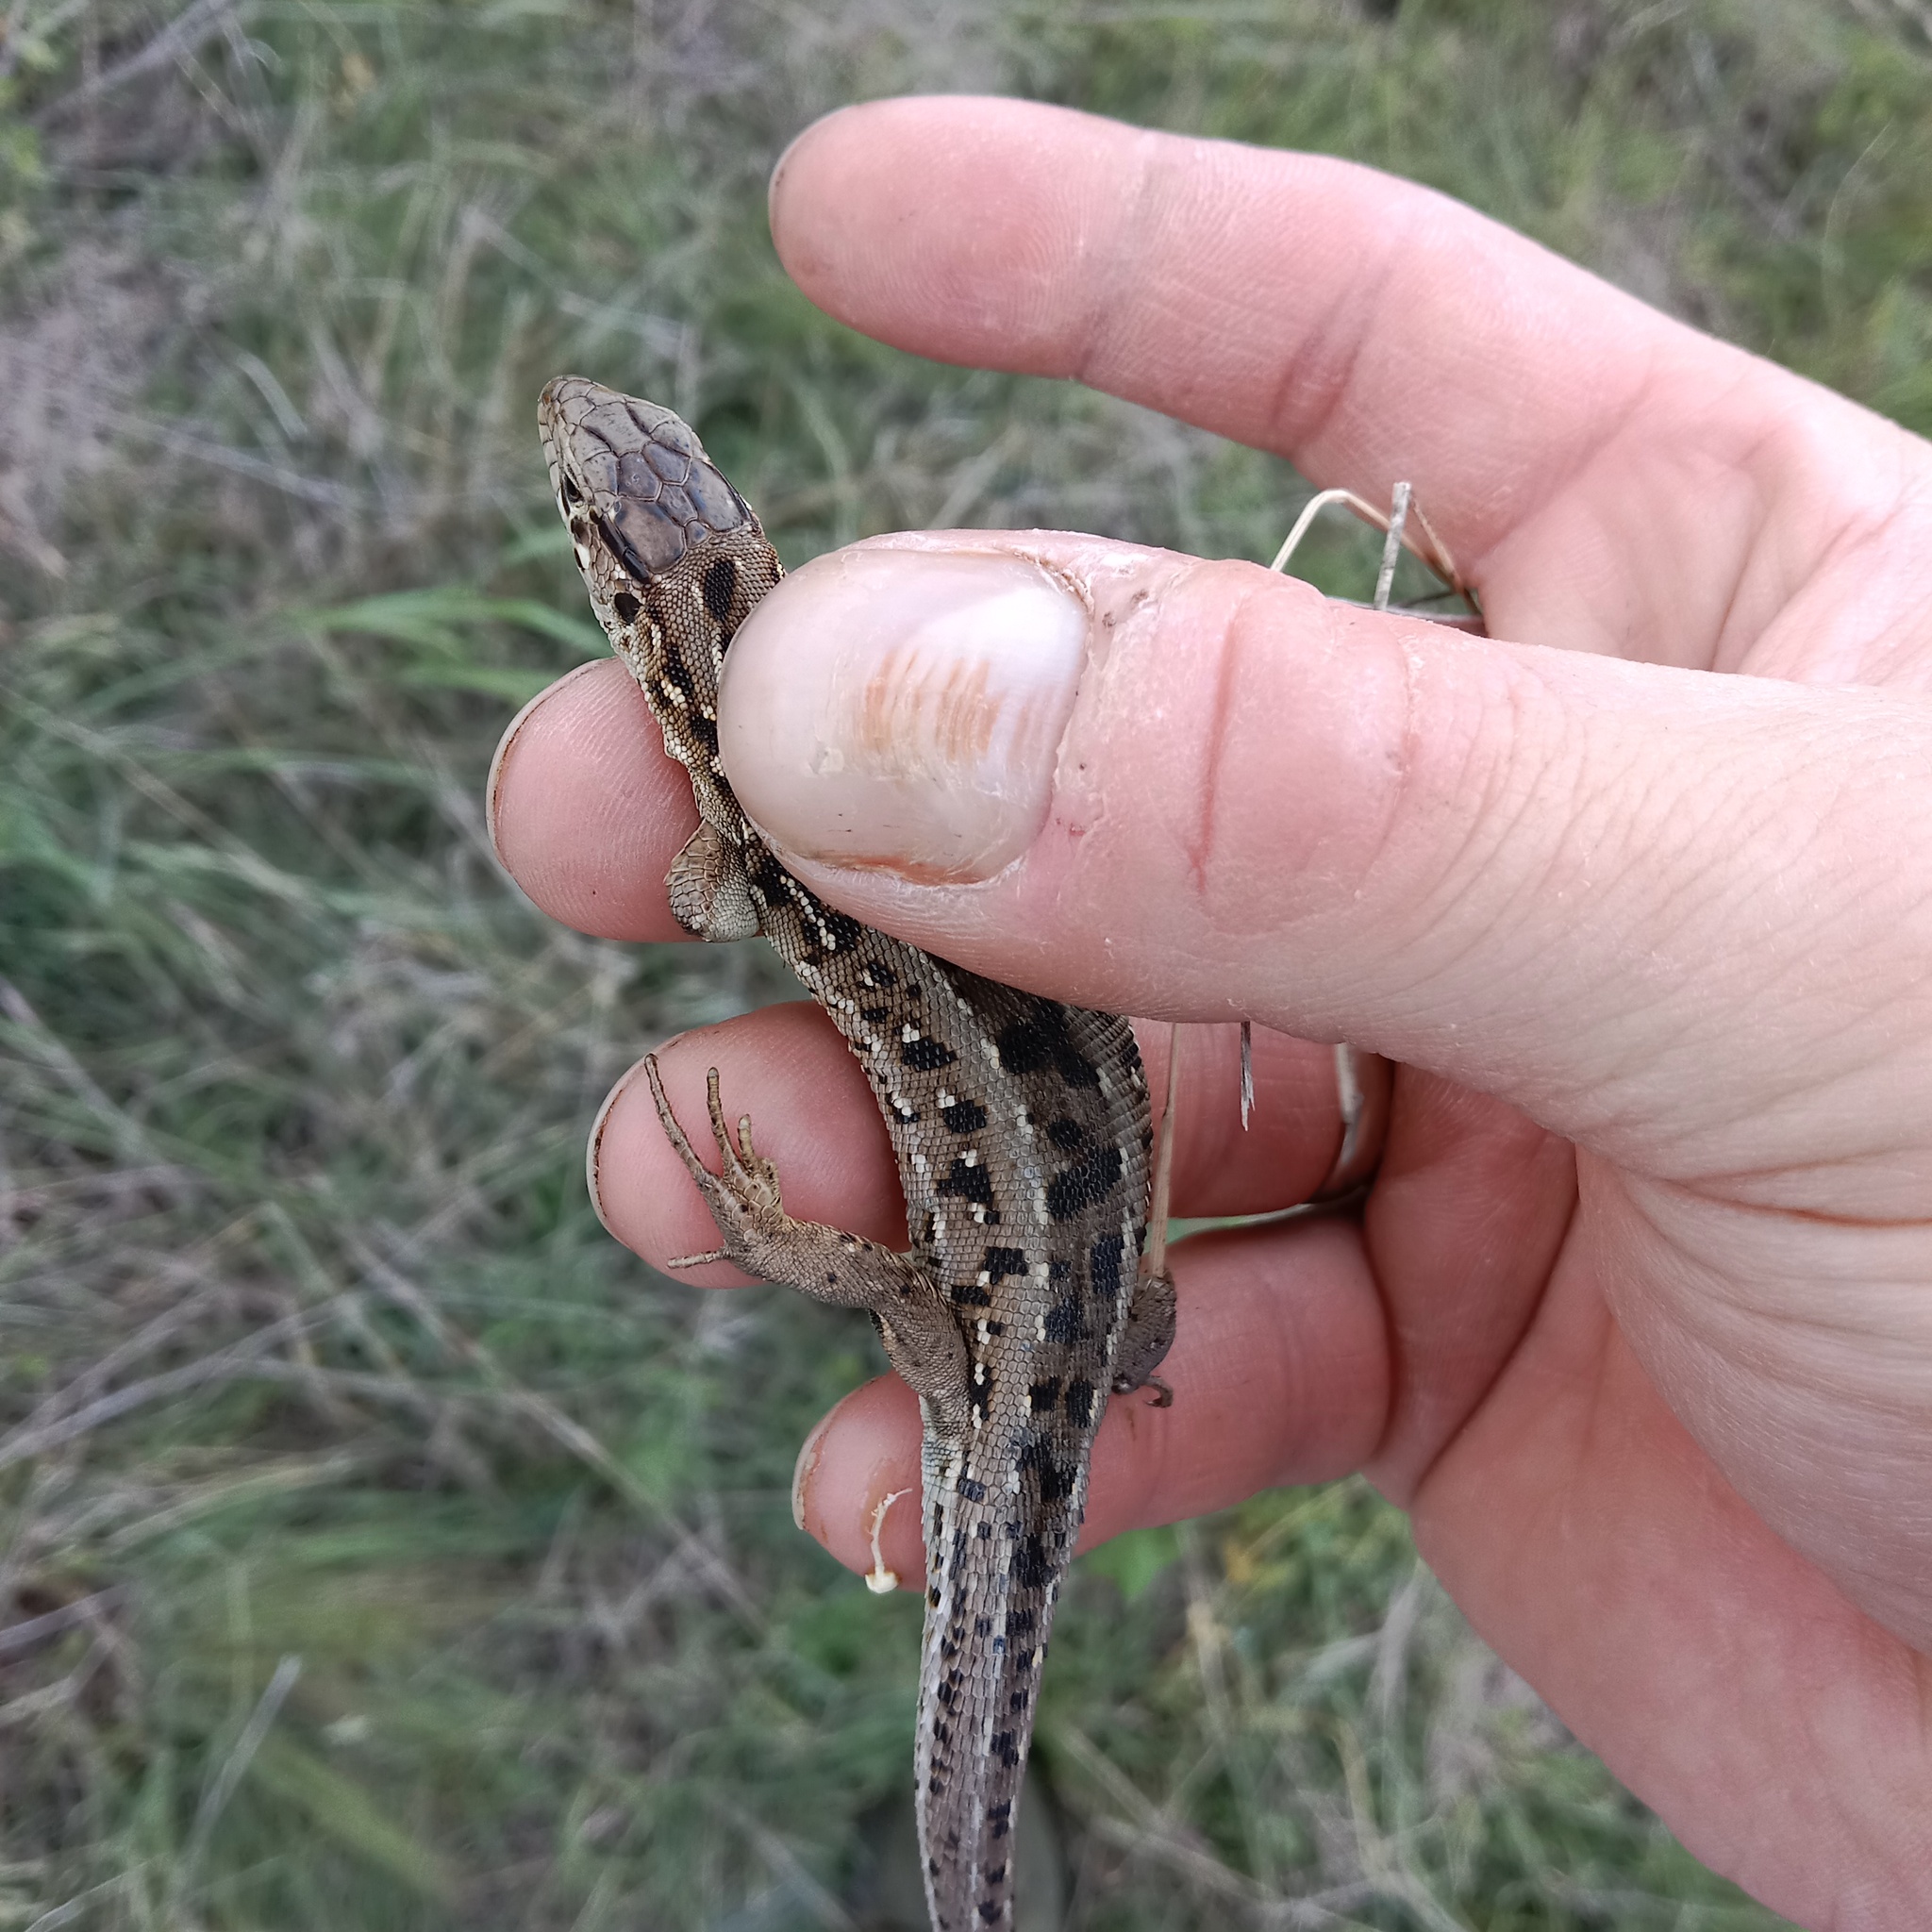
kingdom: Animalia
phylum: Chordata
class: Squamata
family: Lacertidae
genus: Lacerta
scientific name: Lacerta agilis
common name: Sand lizard
